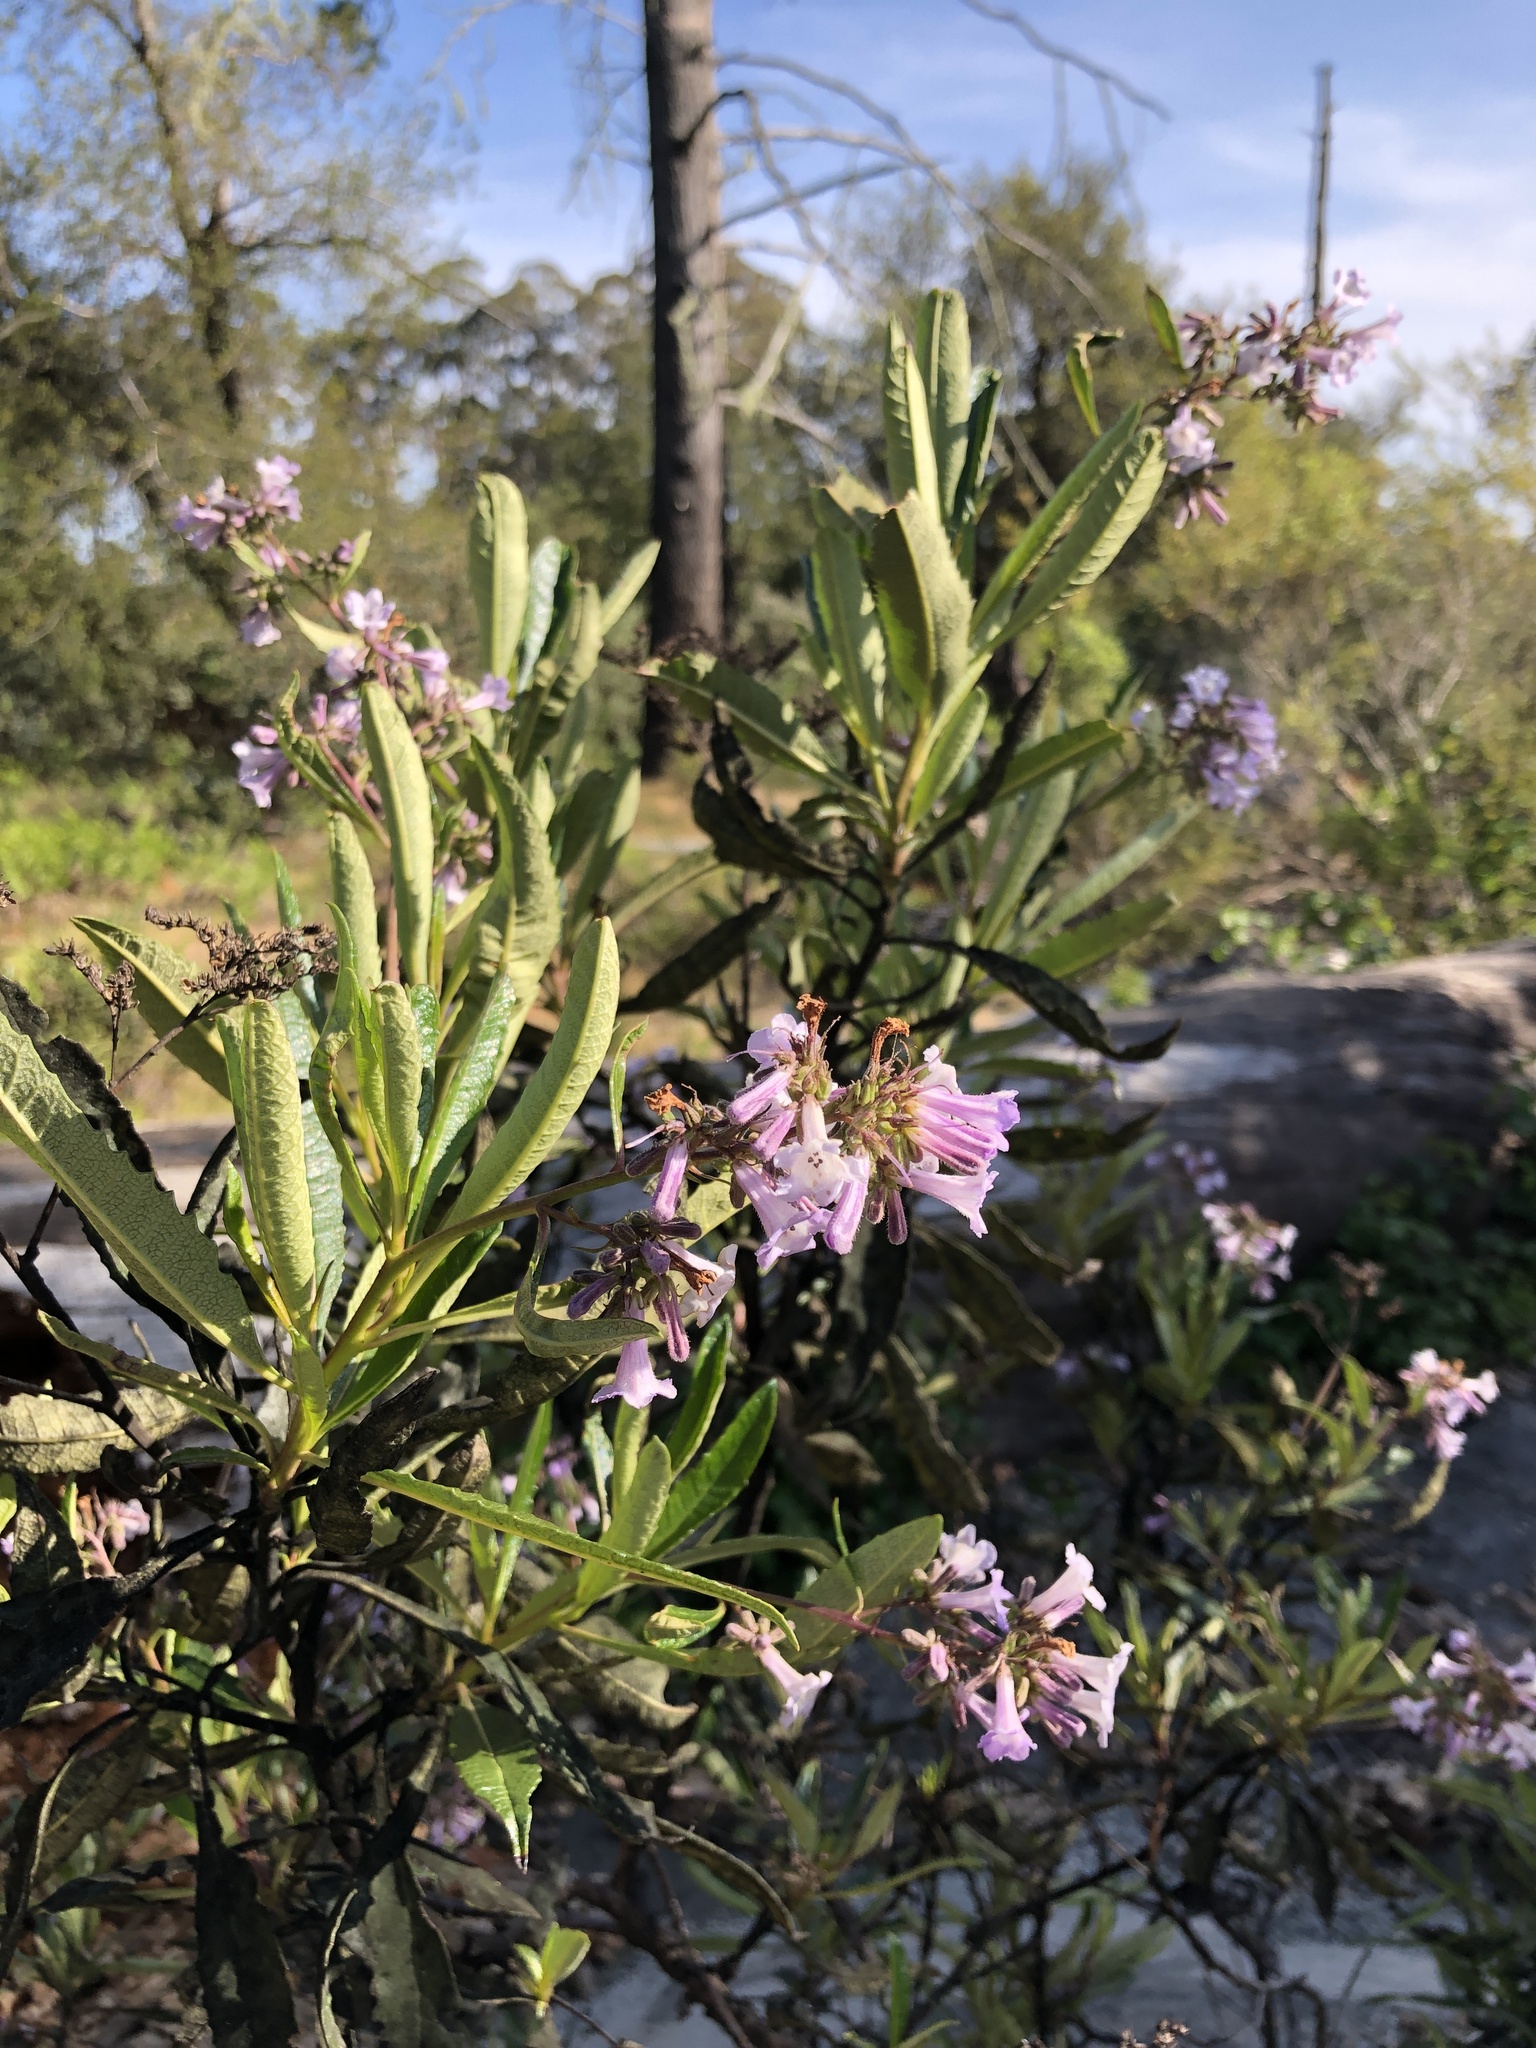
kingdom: Plantae
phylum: Tracheophyta
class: Magnoliopsida
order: Boraginales
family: Namaceae
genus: Eriodictyon
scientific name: Eriodictyon californicum
